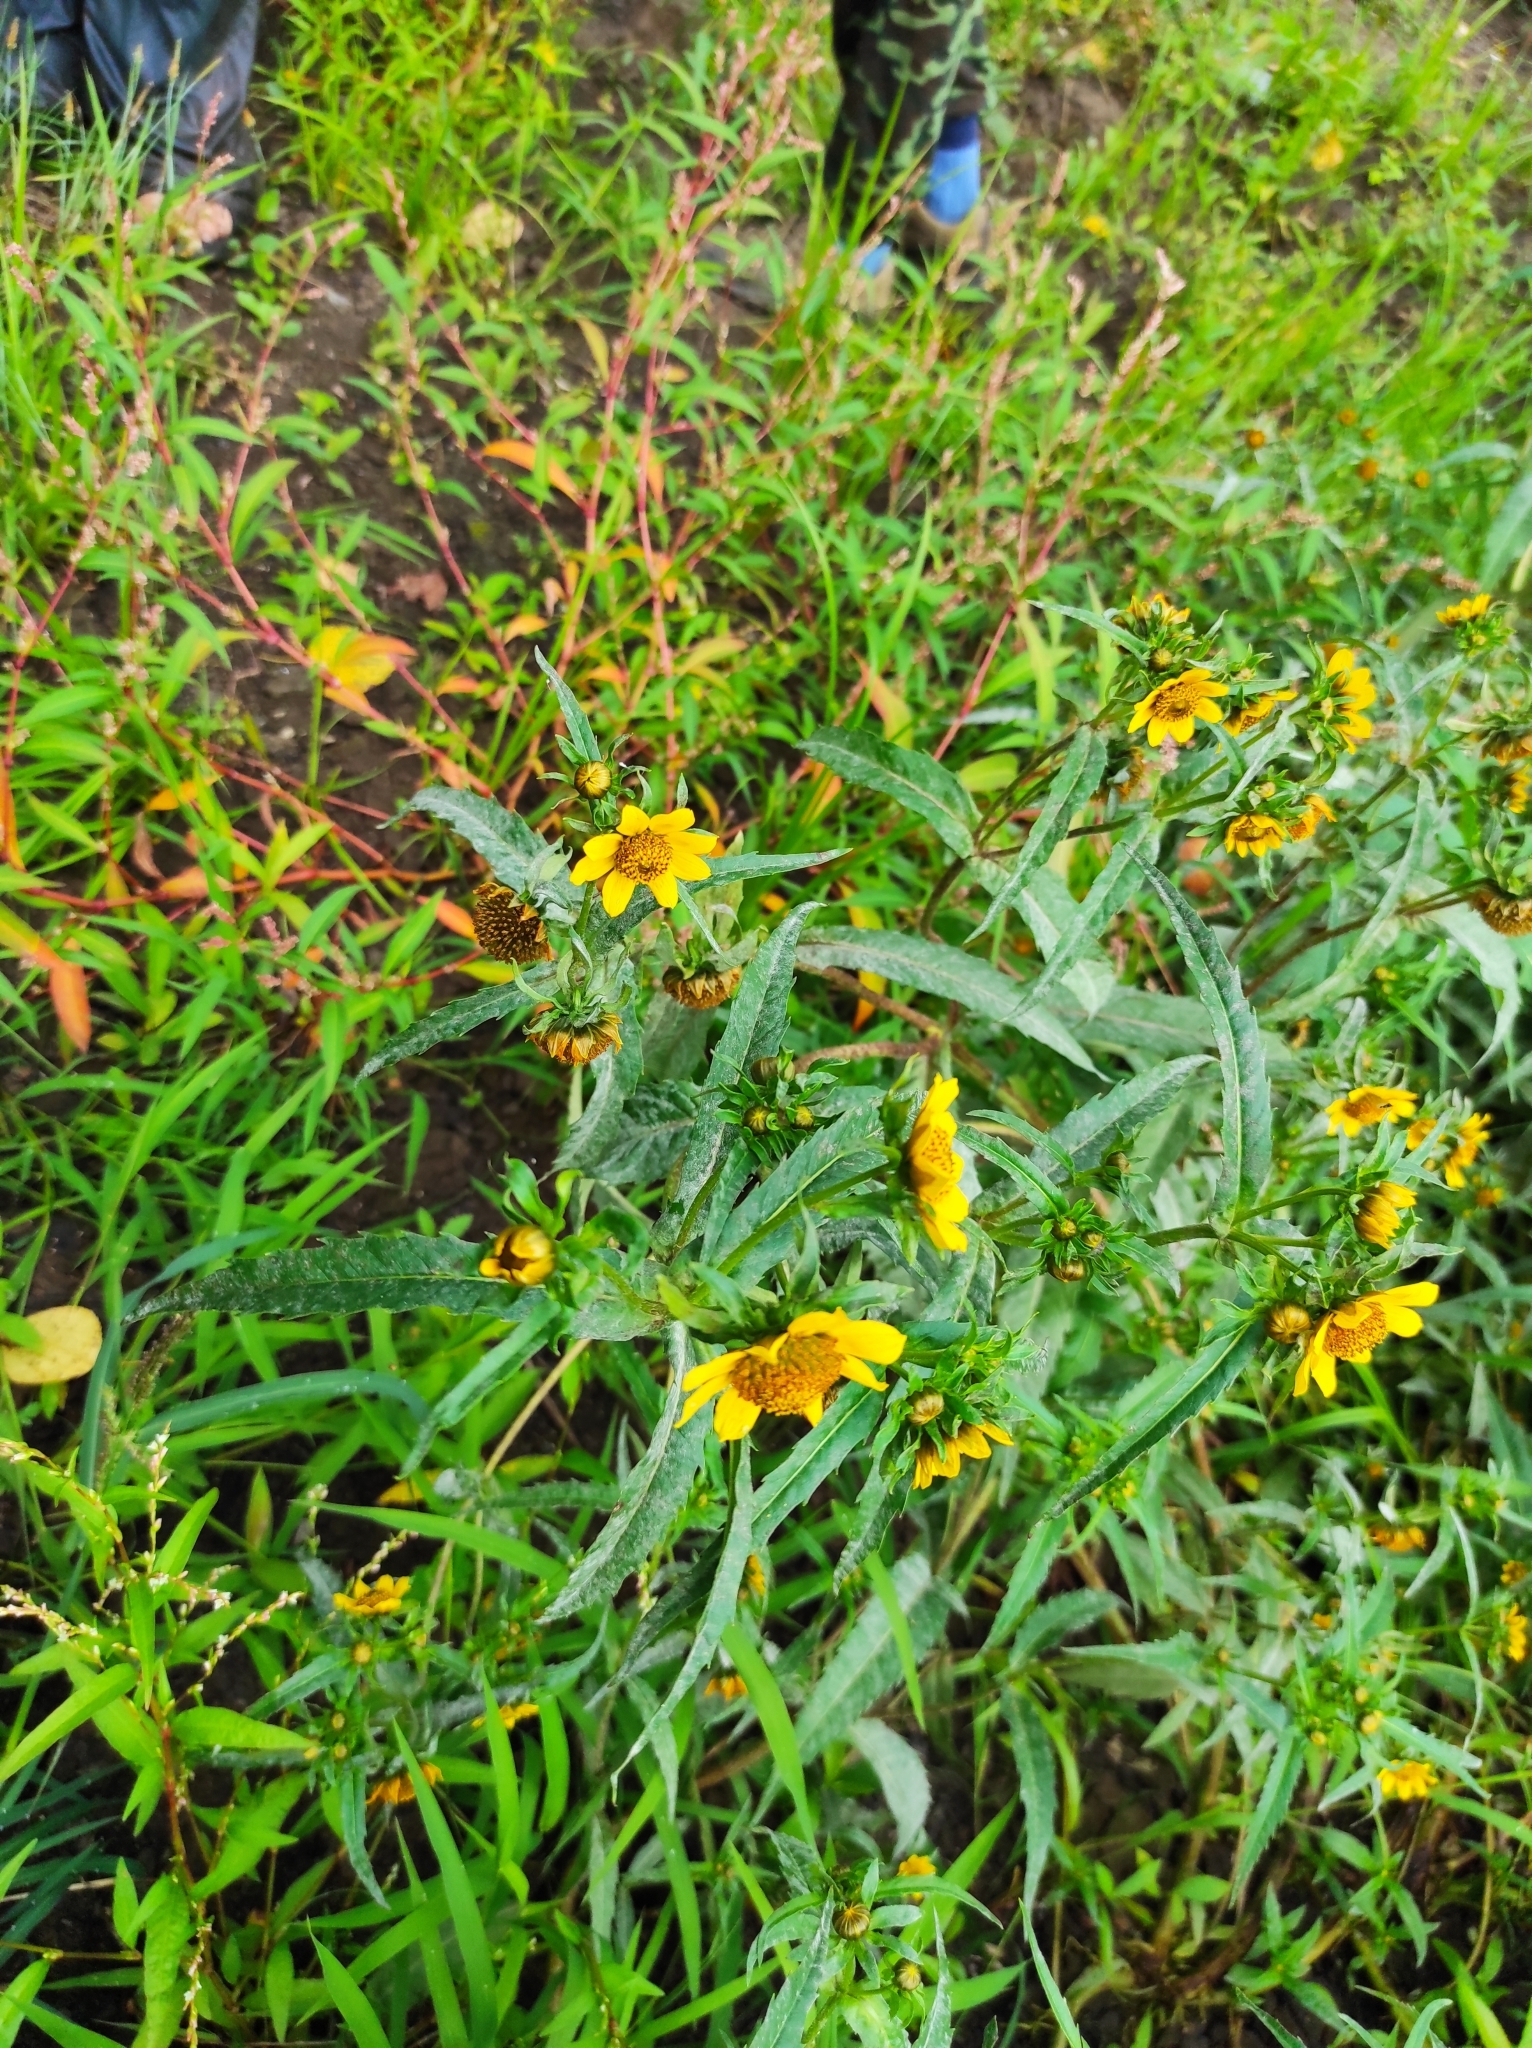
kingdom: Plantae
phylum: Tracheophyta
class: Magnoliopsida
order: Asterales
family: Asteraceae
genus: Bidens
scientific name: Bidens cernua
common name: Nodding bur-marigold
